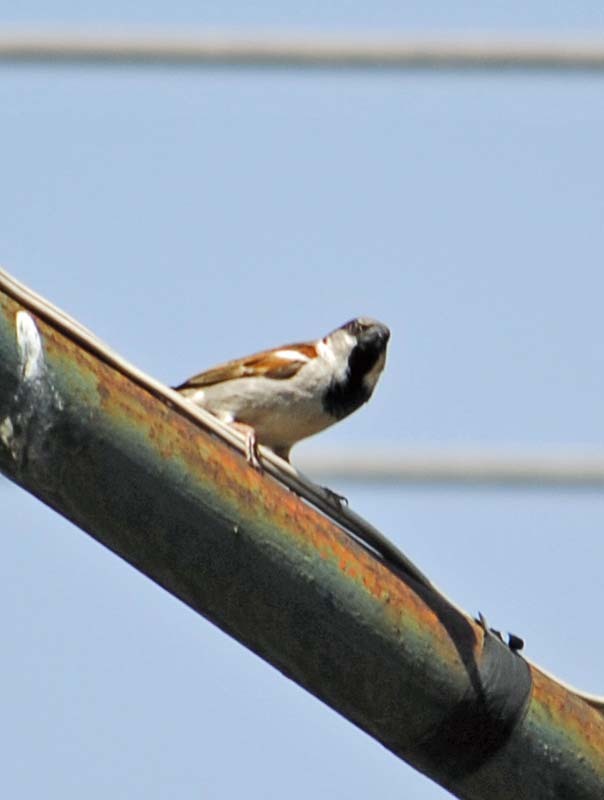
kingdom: Animalia
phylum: Chordata
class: Aves
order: Passeriformes
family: Passeridae
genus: Passer
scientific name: Passer domesticus
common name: House sparrow
